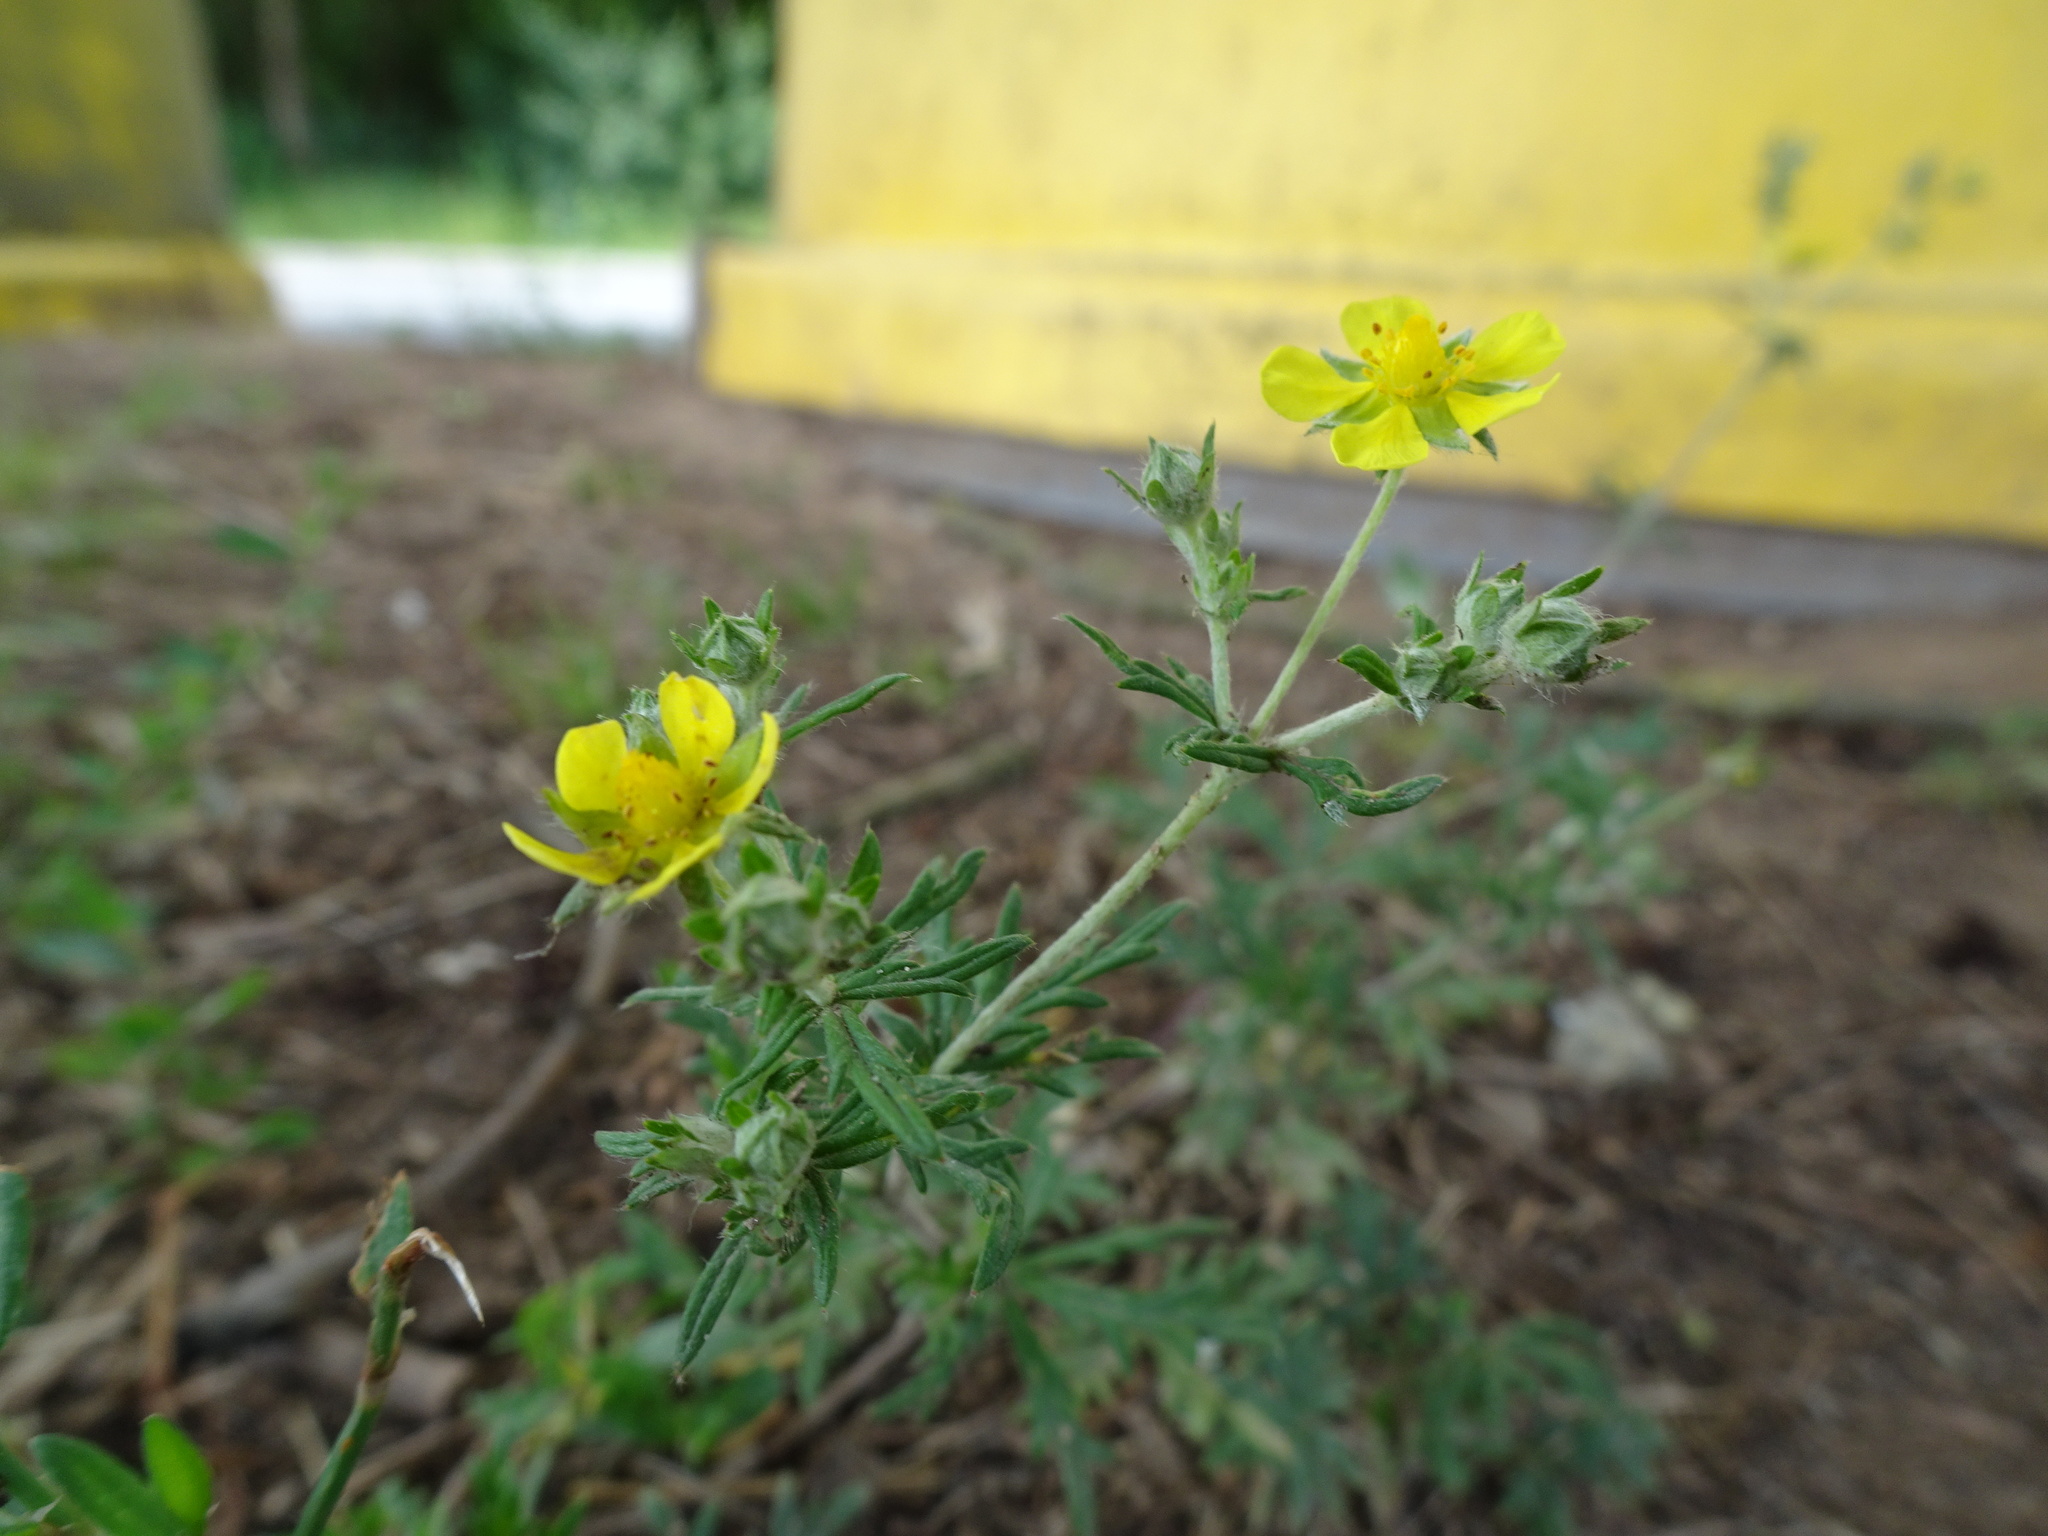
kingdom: Plantae
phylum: Tracheophyta
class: Magnoliopsida
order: Rosales
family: Rosaceae
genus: Potentilla
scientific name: Potentilla argentea
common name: Hoary cinquefoil
